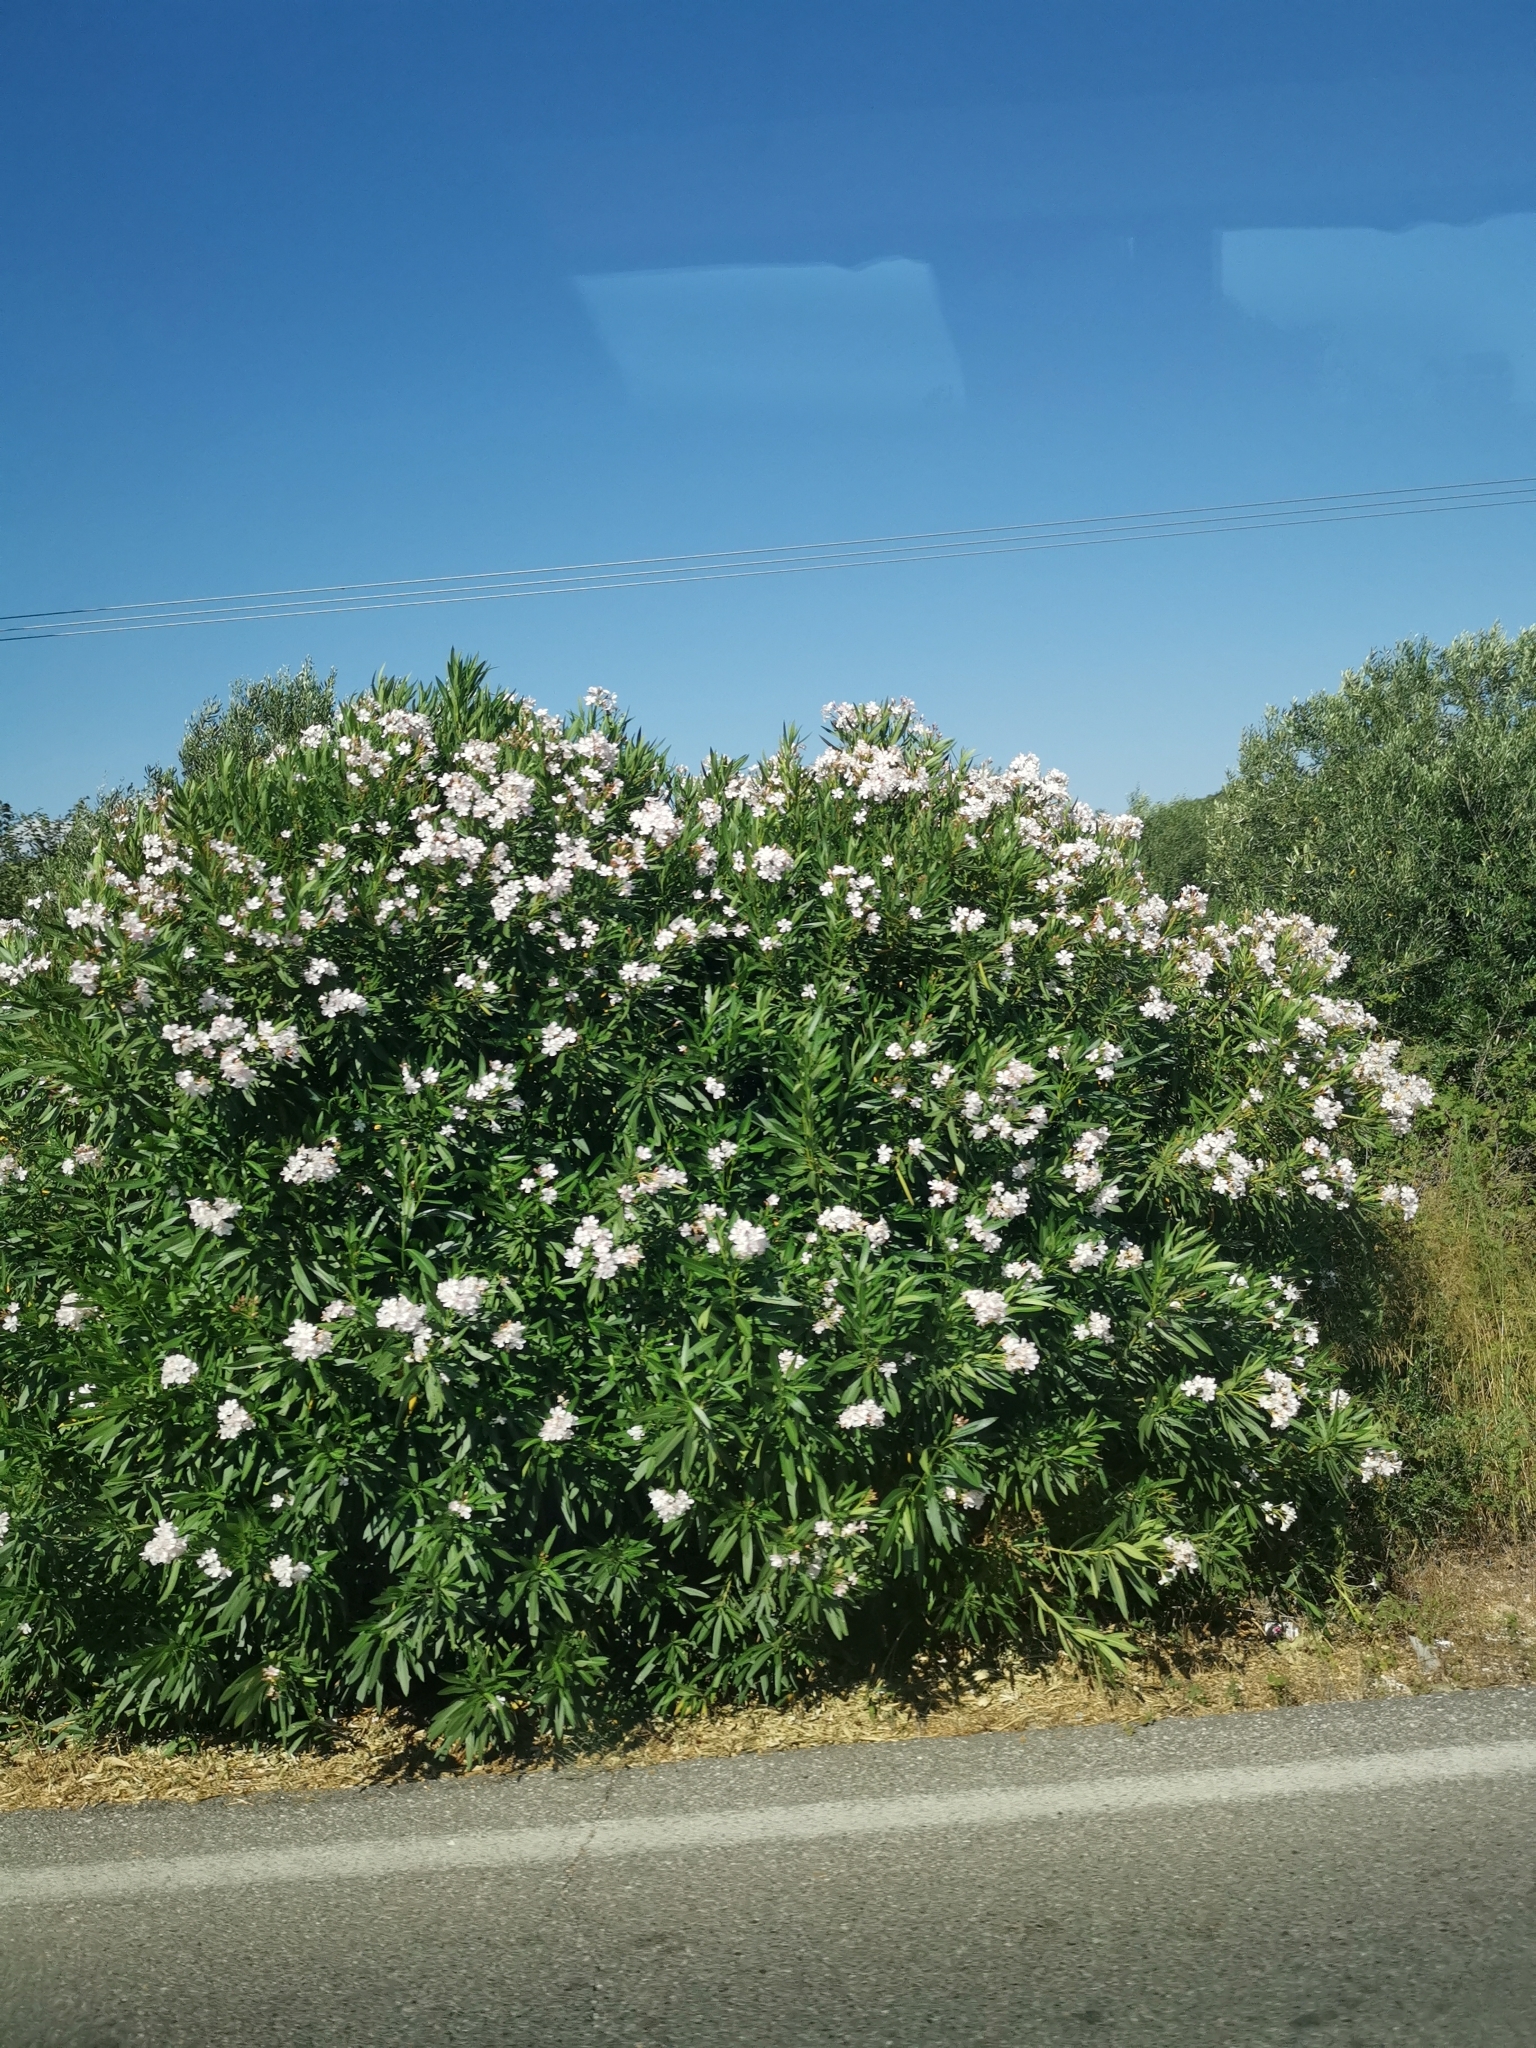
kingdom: Plantae
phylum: Tracheophyta
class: Magnoliopsida
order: Gentianales
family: Apocynaceae
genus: Nerium
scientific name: Nerium oleander
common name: Oleander
